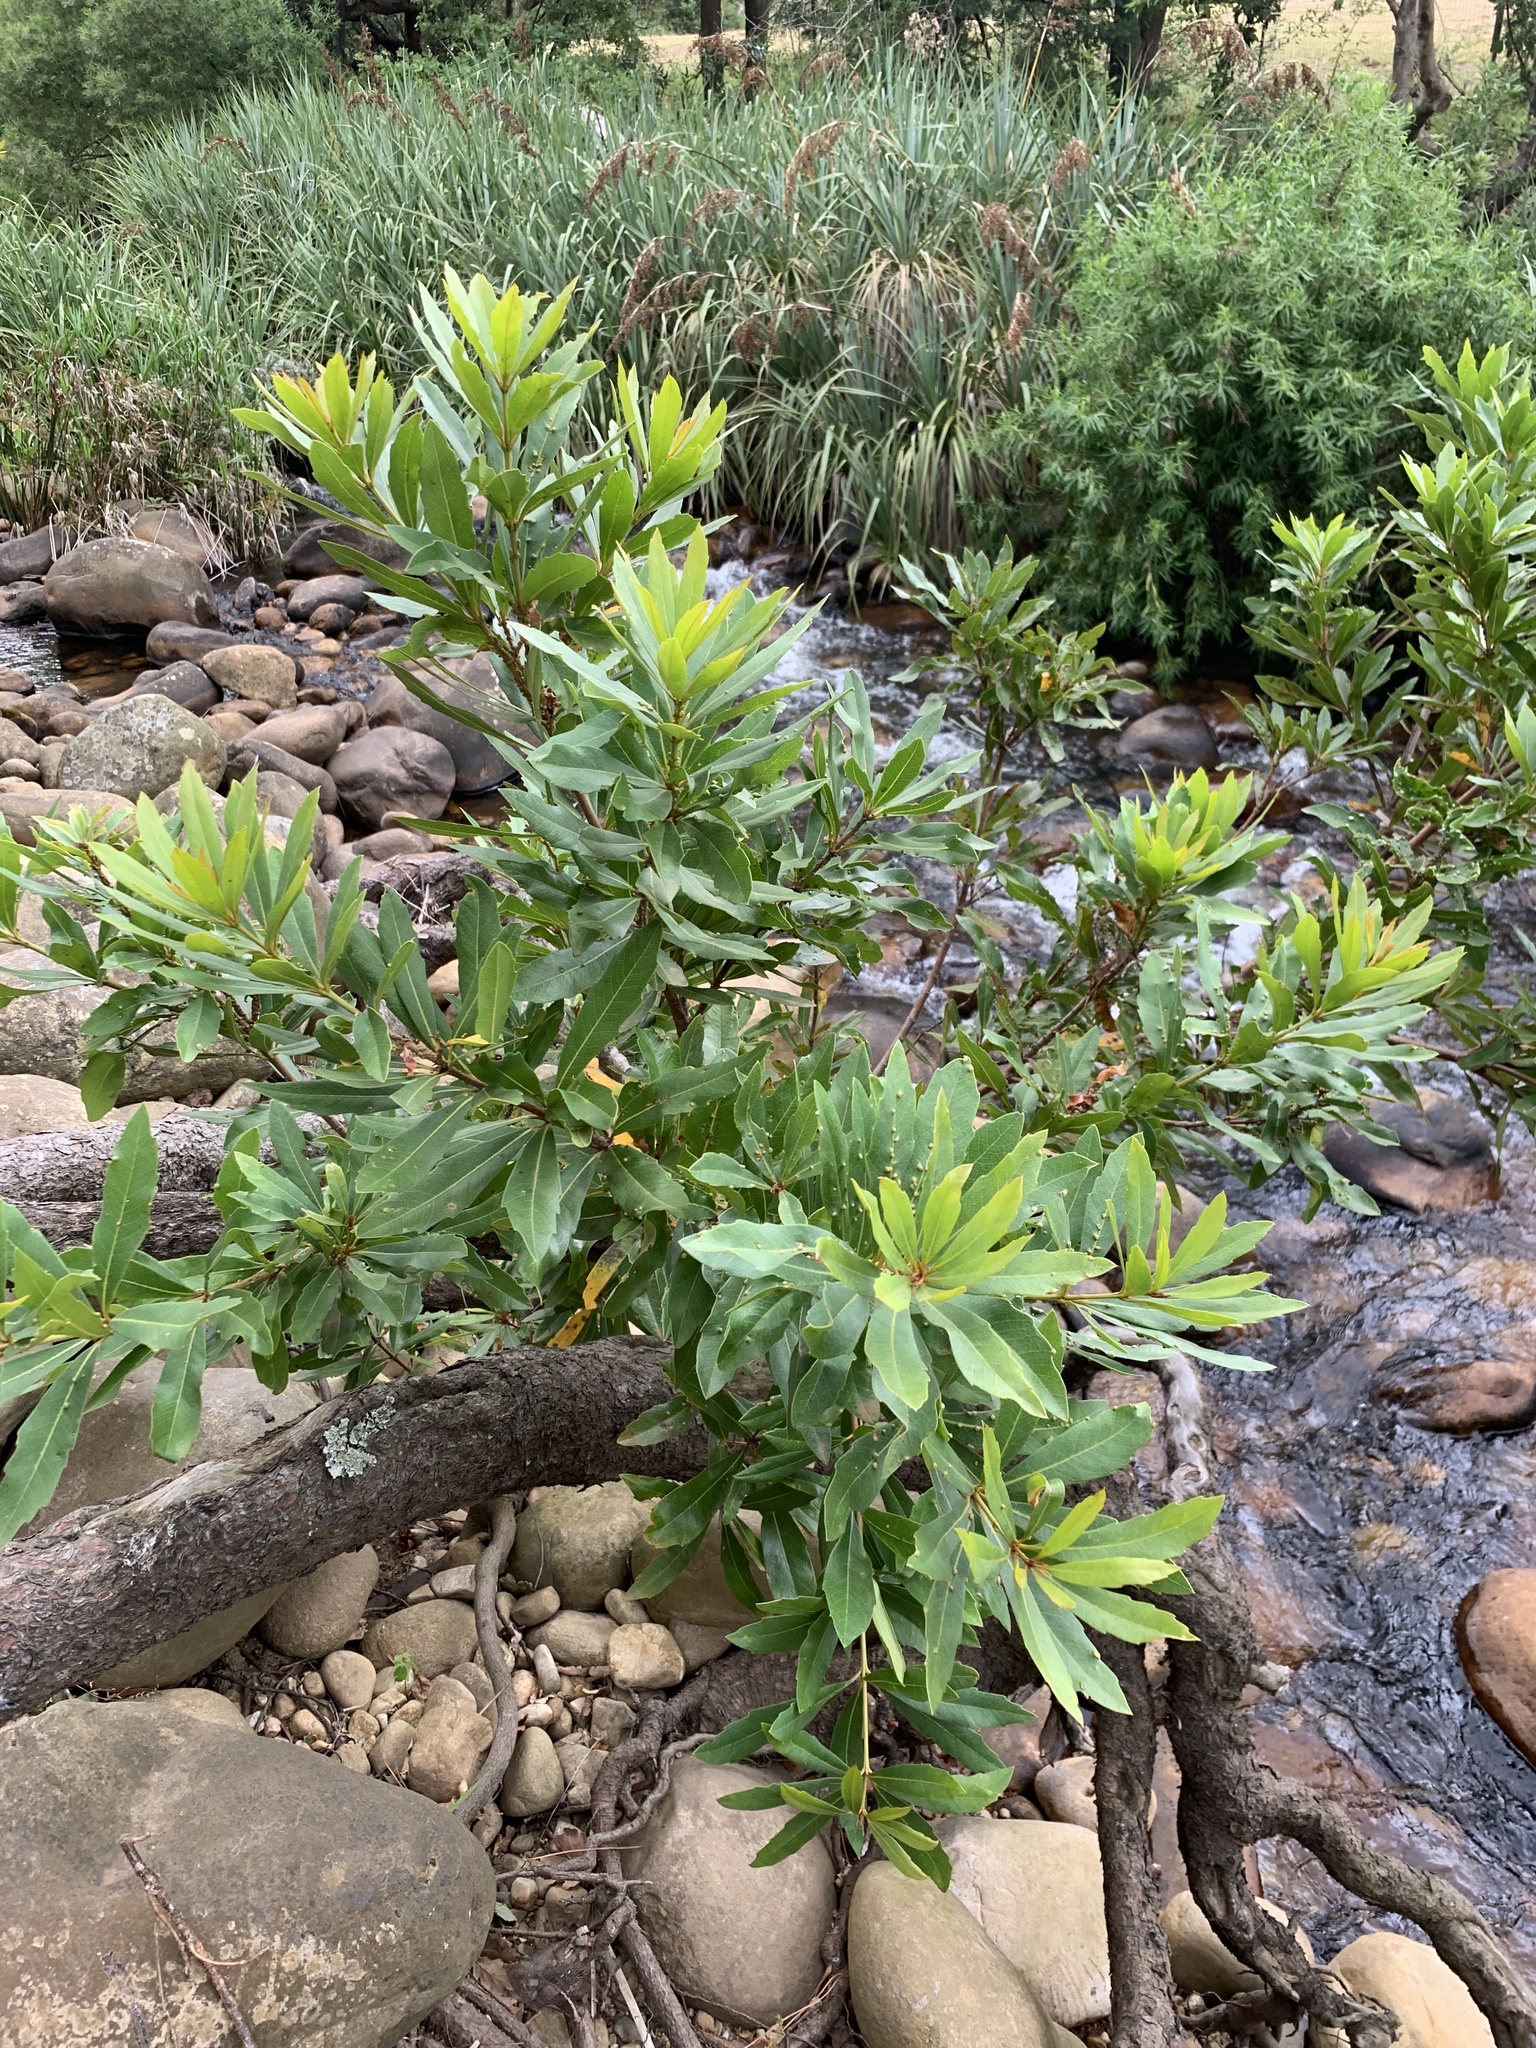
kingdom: Plantae
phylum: Tracheophyta
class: Magnoliopsida
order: Proteales
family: Proteaceae
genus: Brabejum
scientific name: Brabejum stellatifolium
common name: Wild almond
